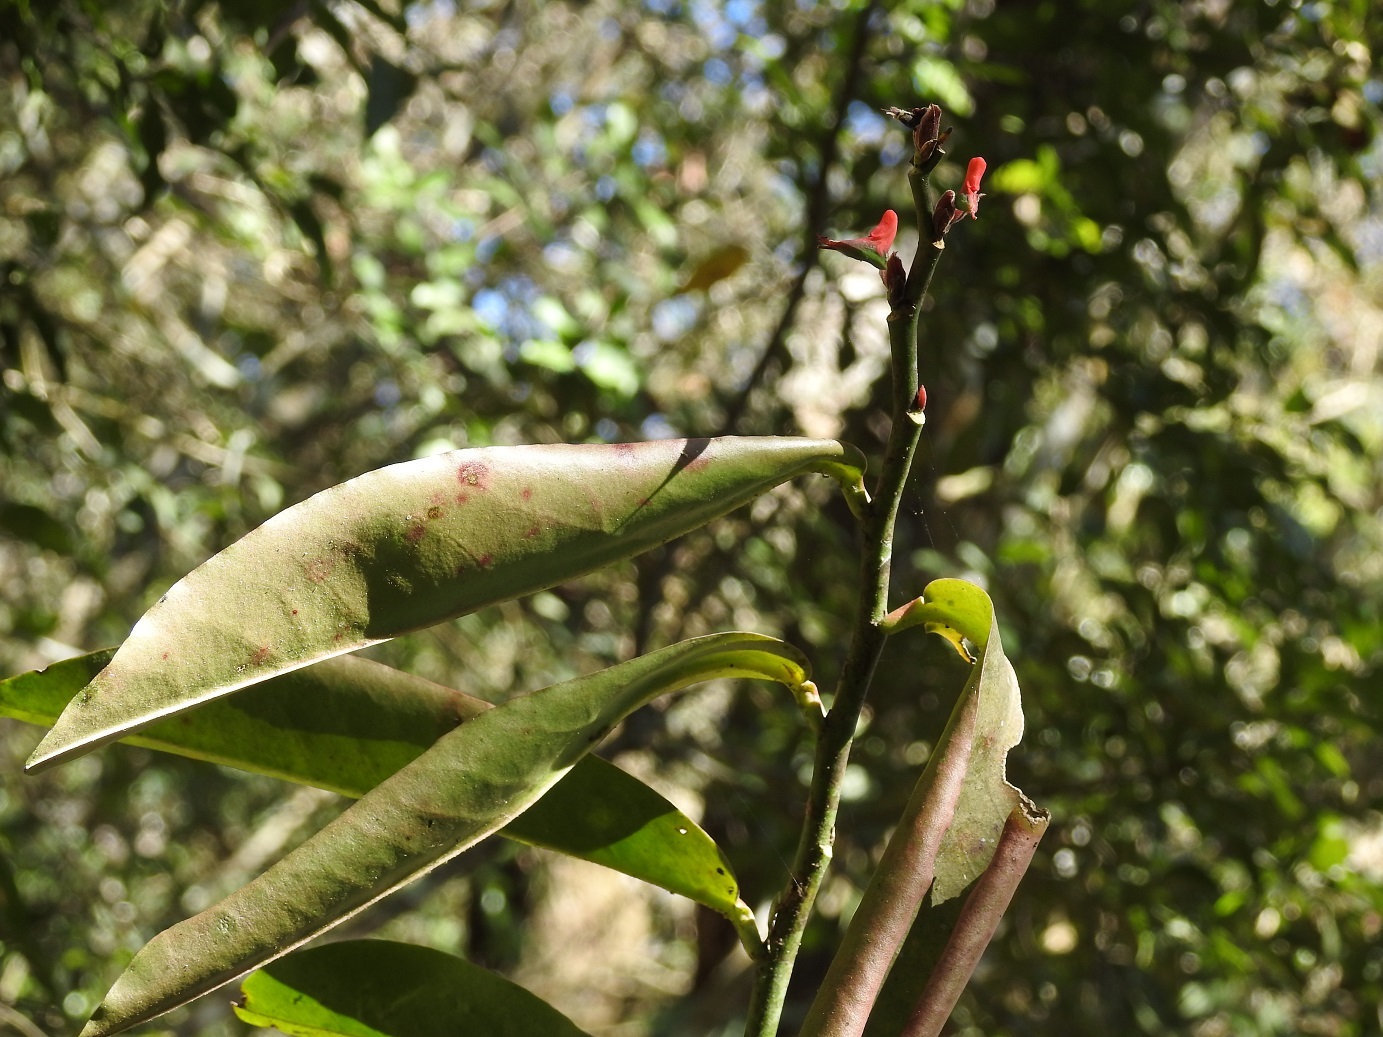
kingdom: Plantae
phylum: Tracheophyta
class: Magnoliopsida
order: Malpighiales
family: Euphorbiaceae
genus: Euphorbia
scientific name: Euphorbia calcarata
